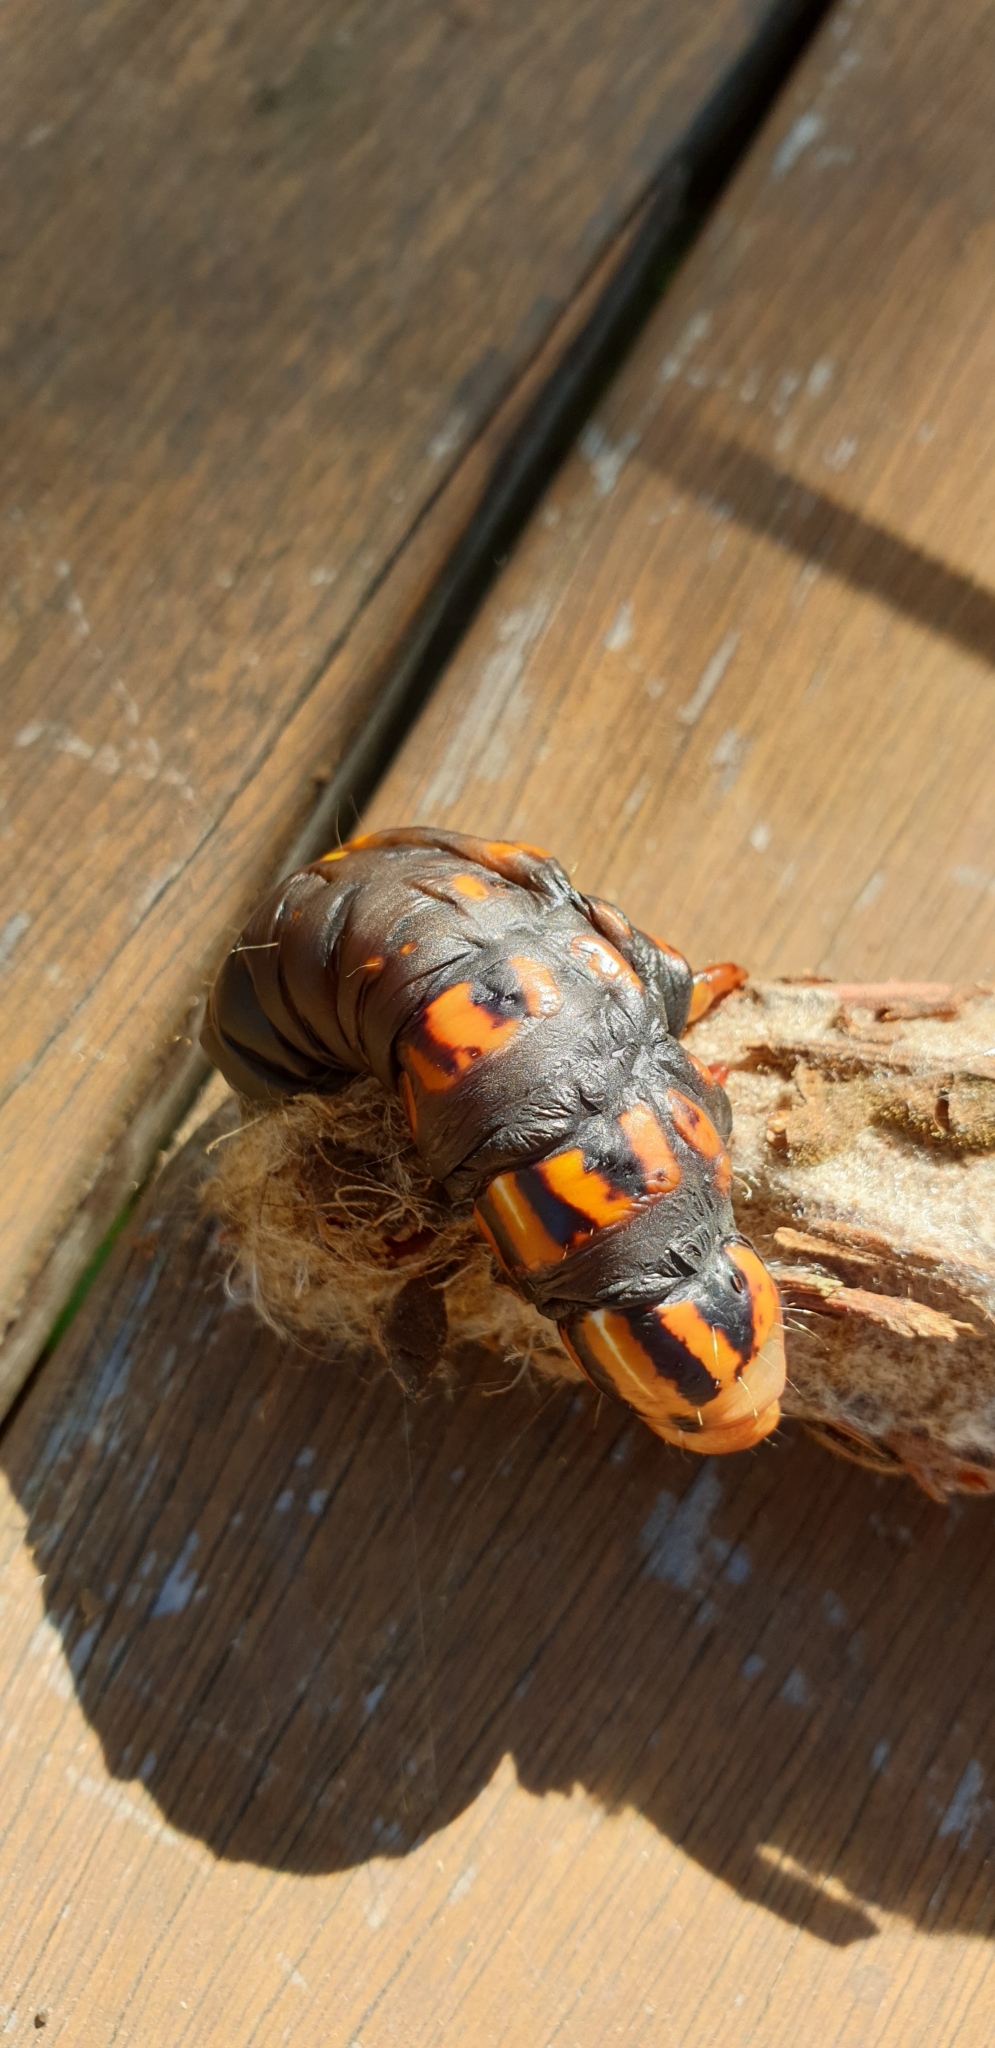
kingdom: Animalia
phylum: Arthropoda
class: Insecta
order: Lepidoptera
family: Psychidae
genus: Metura
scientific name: Metura elongatus
